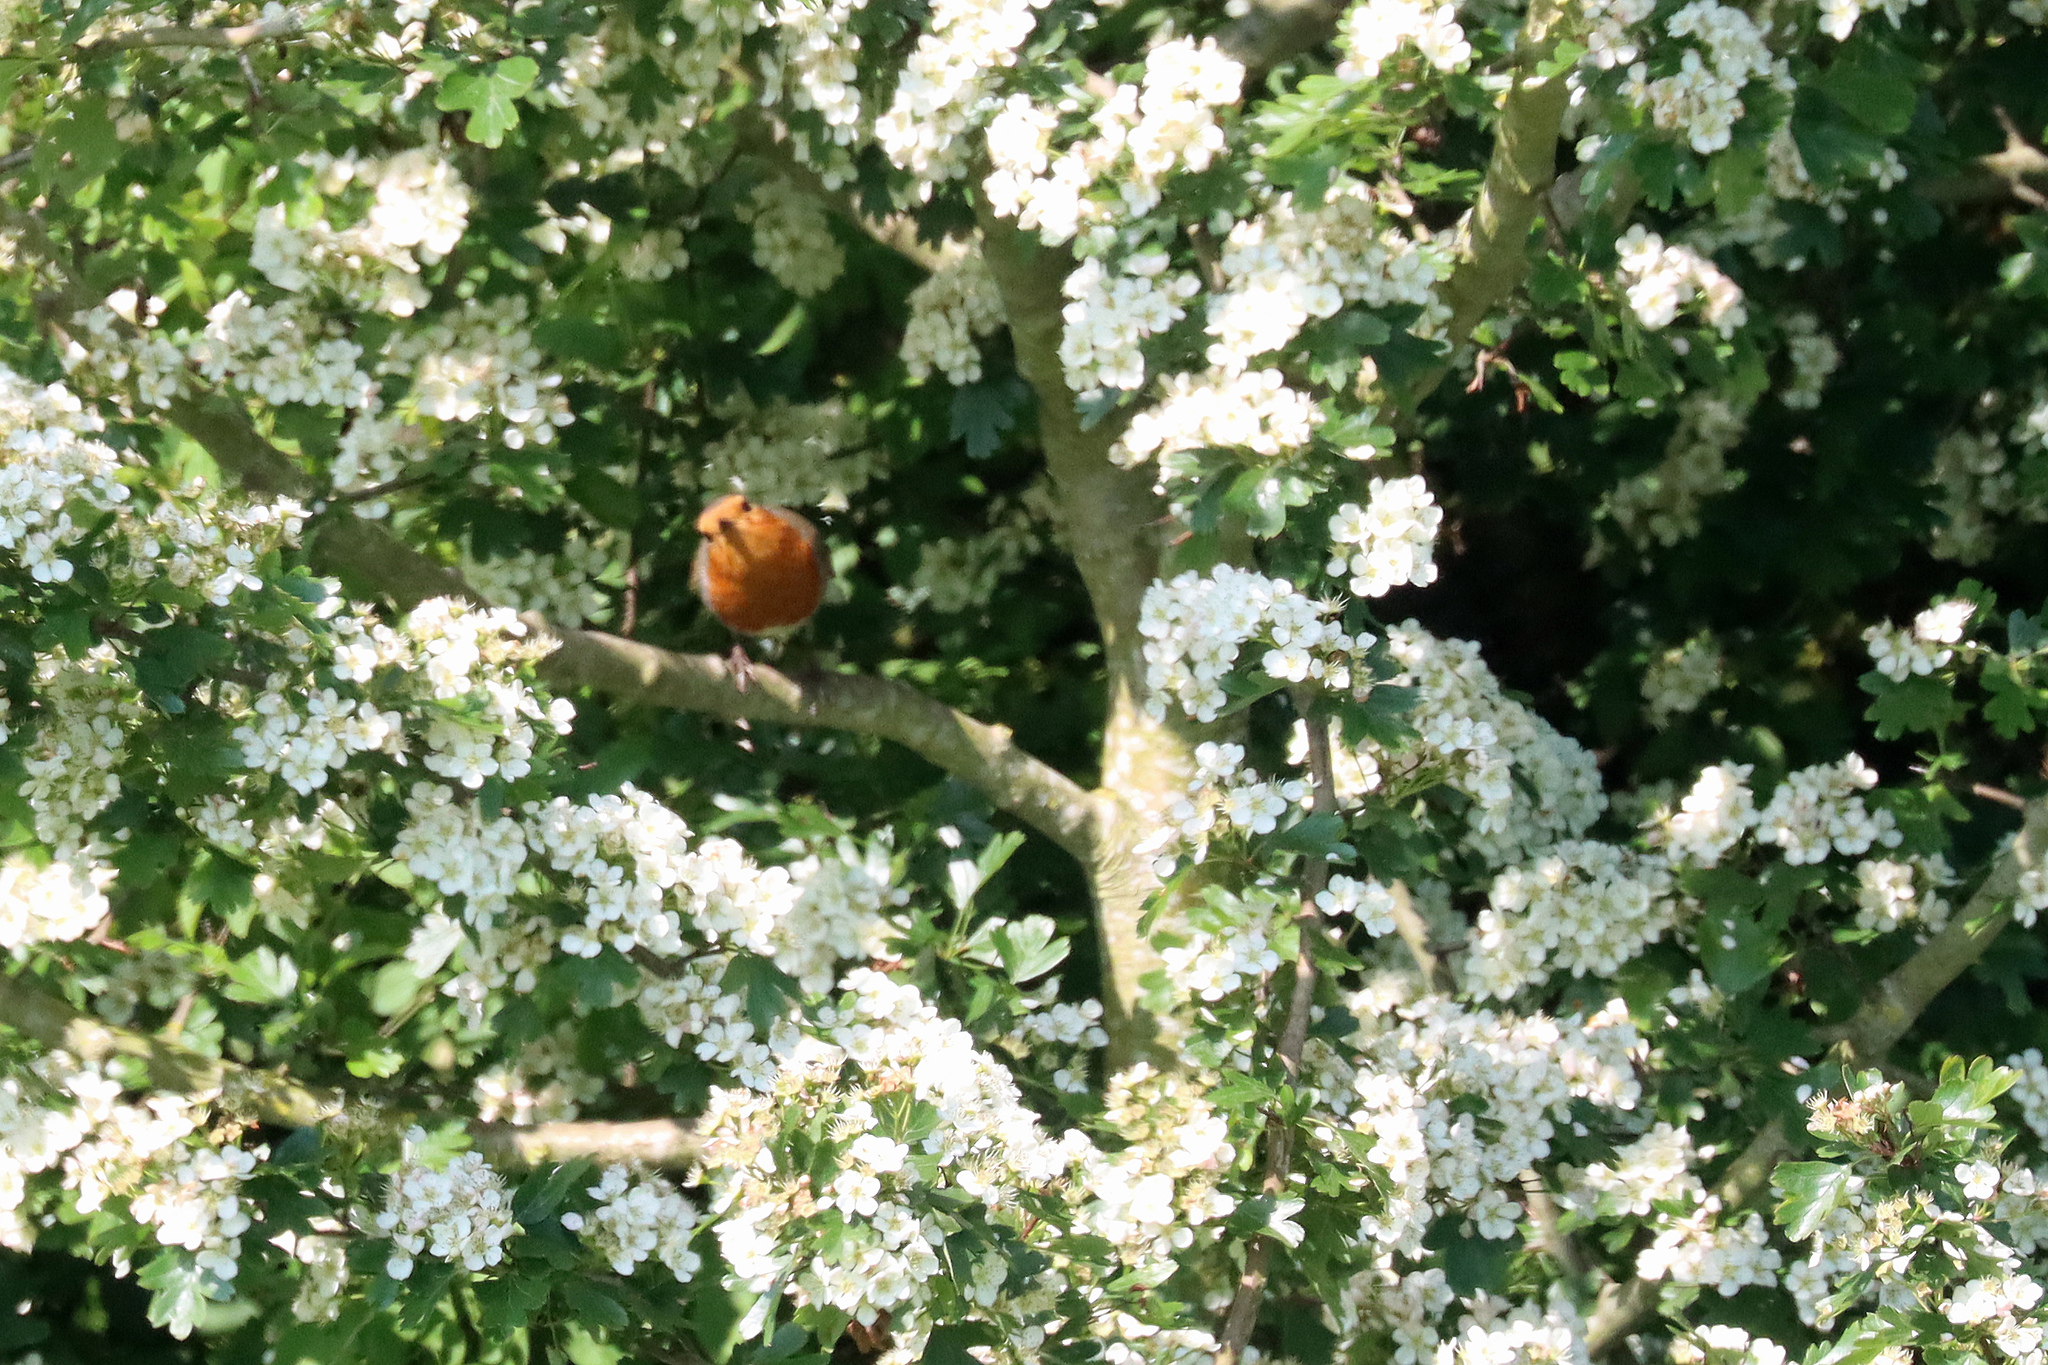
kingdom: Animalia
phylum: Chordata
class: Aves
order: Passeriformes
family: Muscicapidae
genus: Erithacus
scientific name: Erithacus rubecula
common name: European robin
